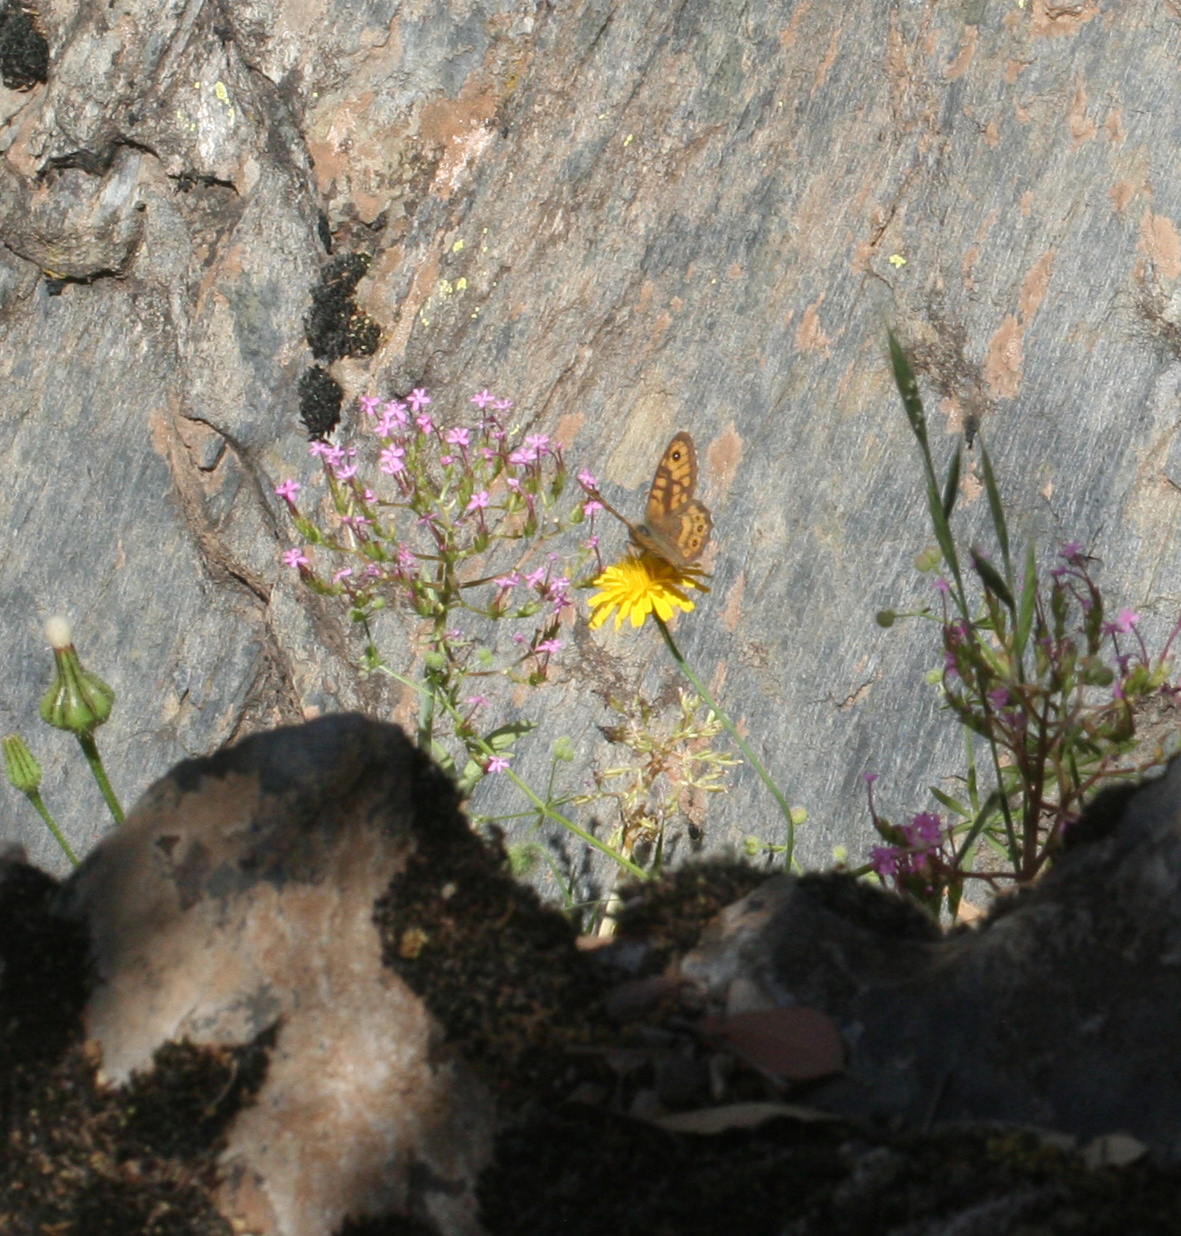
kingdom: Animalia
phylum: Arthropoda
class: Insecta
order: Lepidoptera
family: Nymphalidae
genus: Pararge
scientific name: Pararge Lasiommata megera
